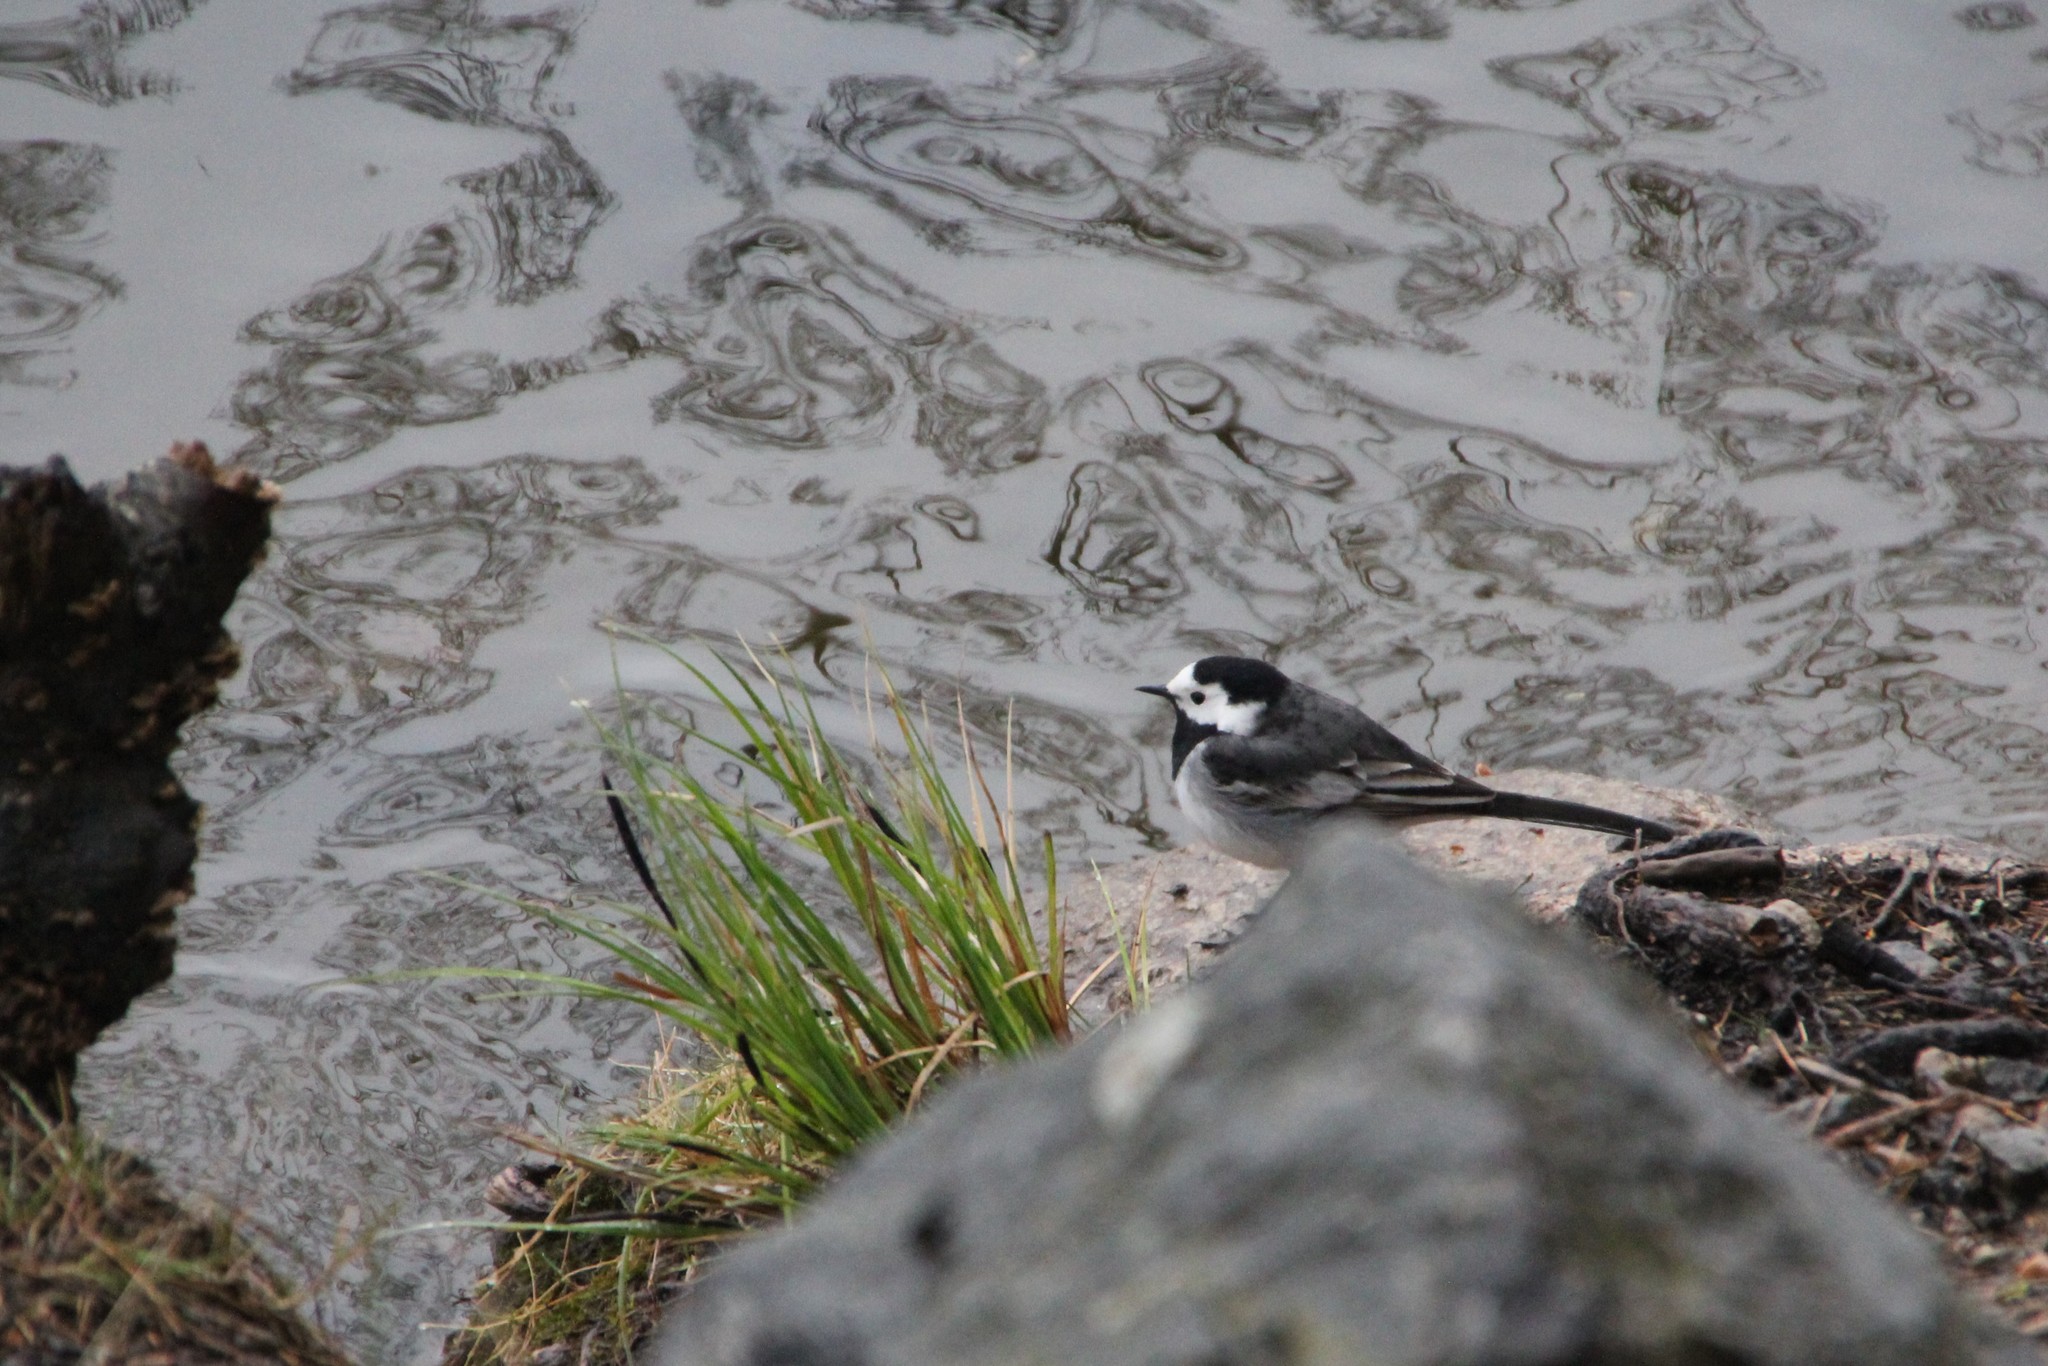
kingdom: Animalia
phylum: Chordata
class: Aves
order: Passeriformes
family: Motacillidae
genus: Motacilla
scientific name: Motacilla alba
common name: White wagtail
